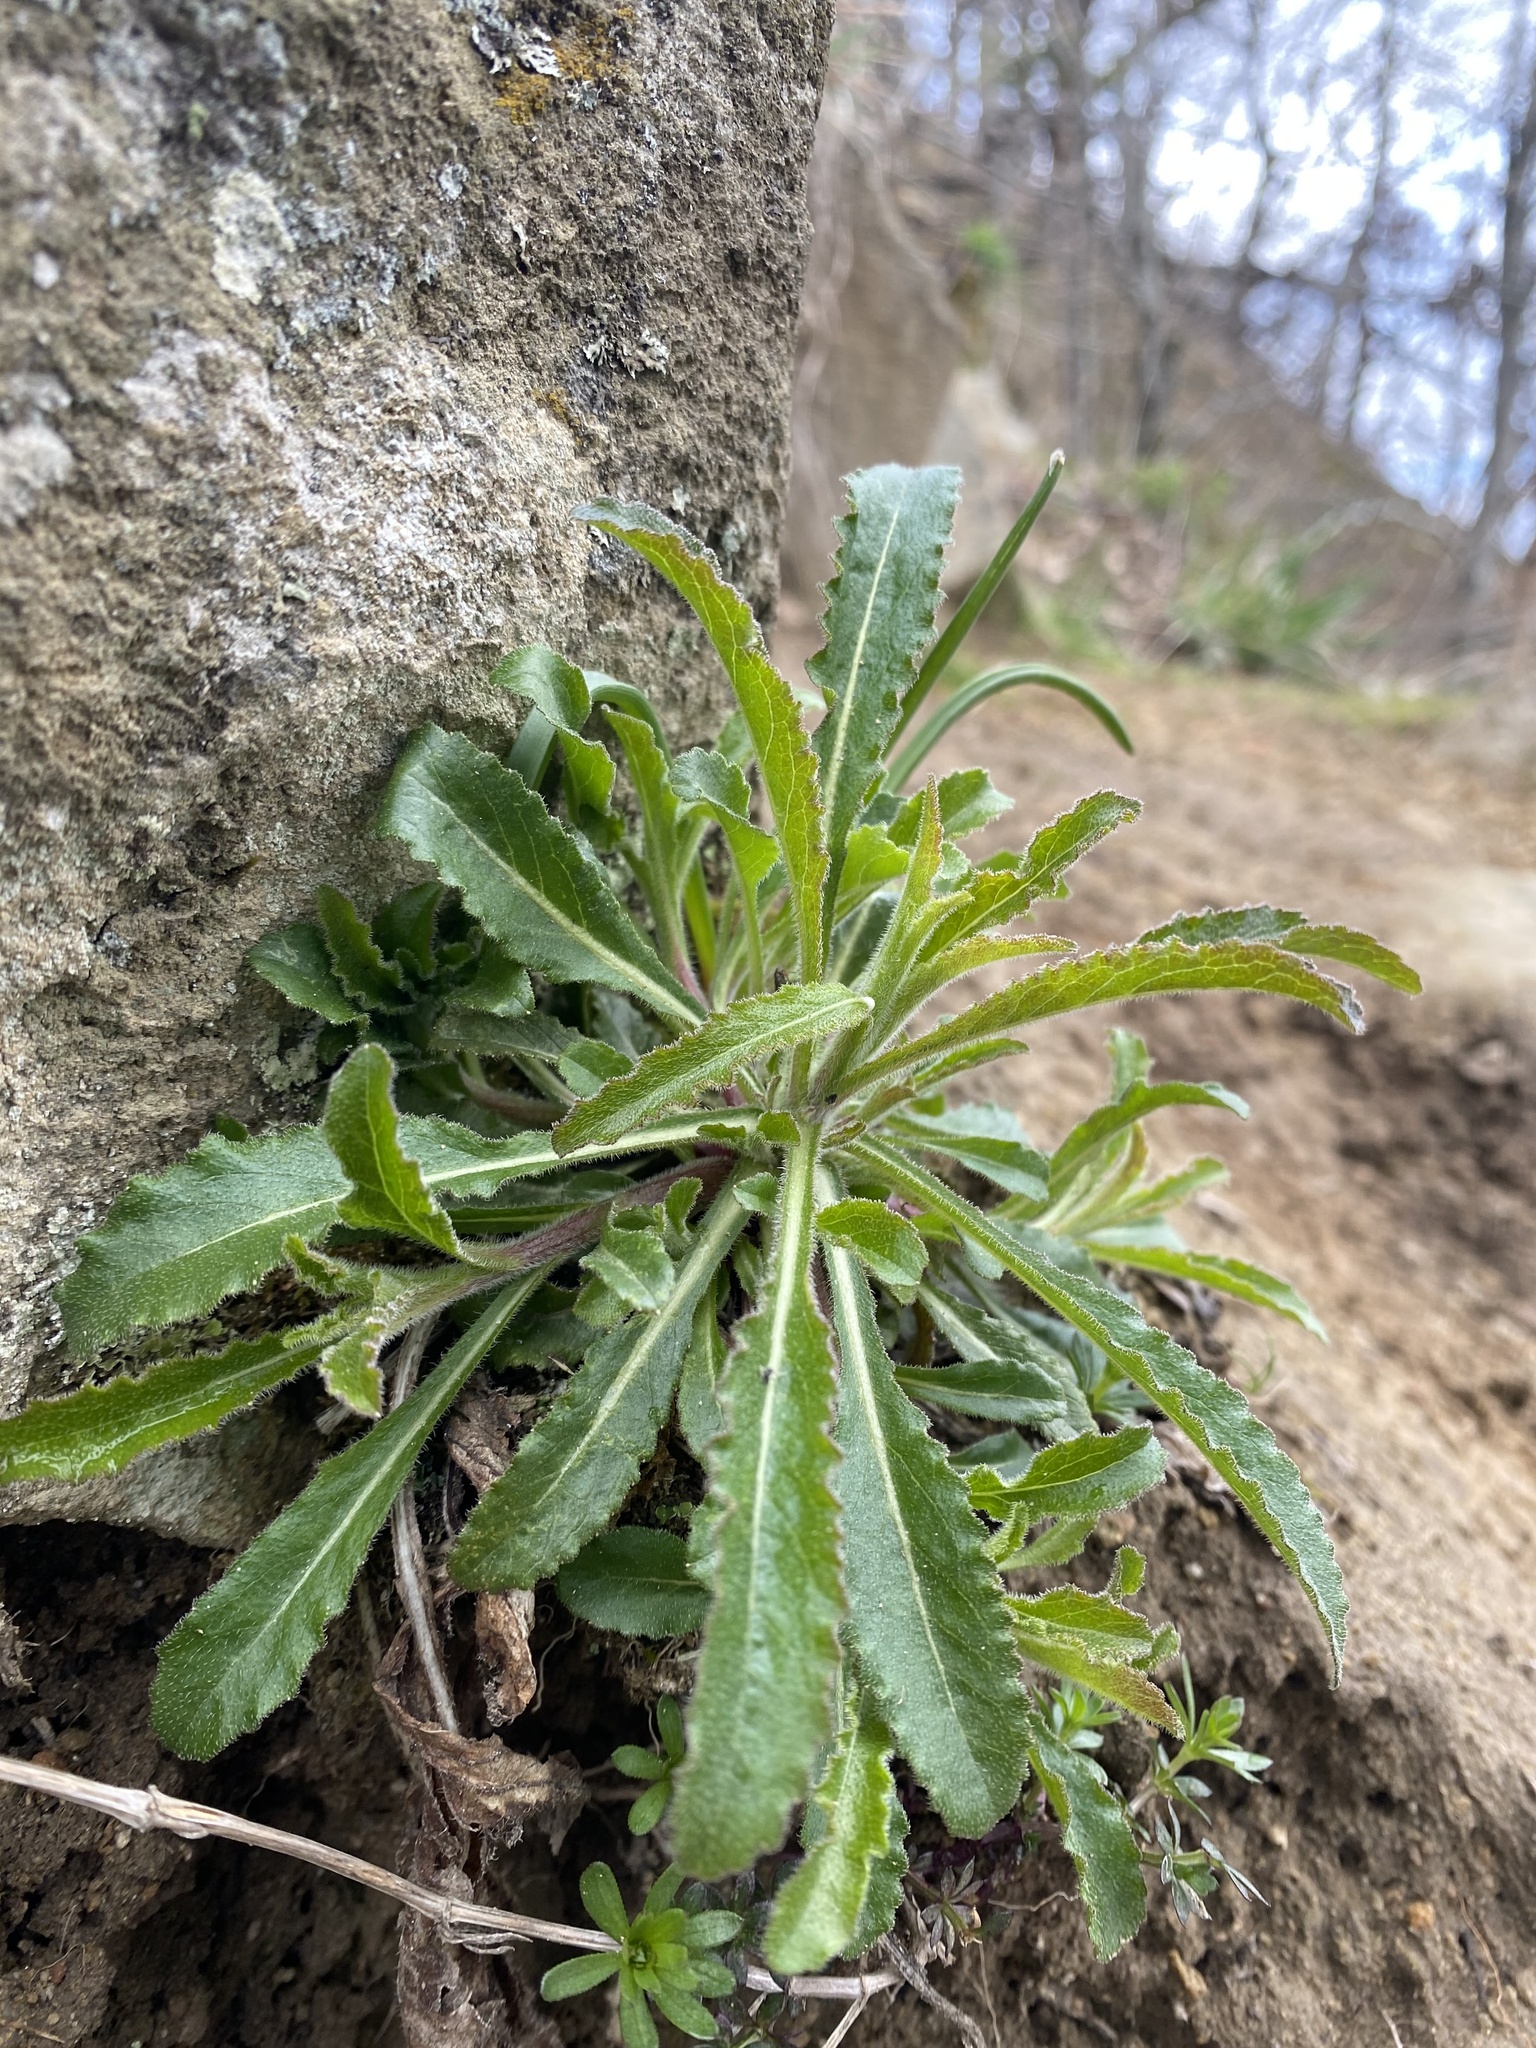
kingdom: Plantae
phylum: Tracheophyta
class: Magnoliopsida
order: Asterales
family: Campanulaceae
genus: Campanula
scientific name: Campanula komarovii
